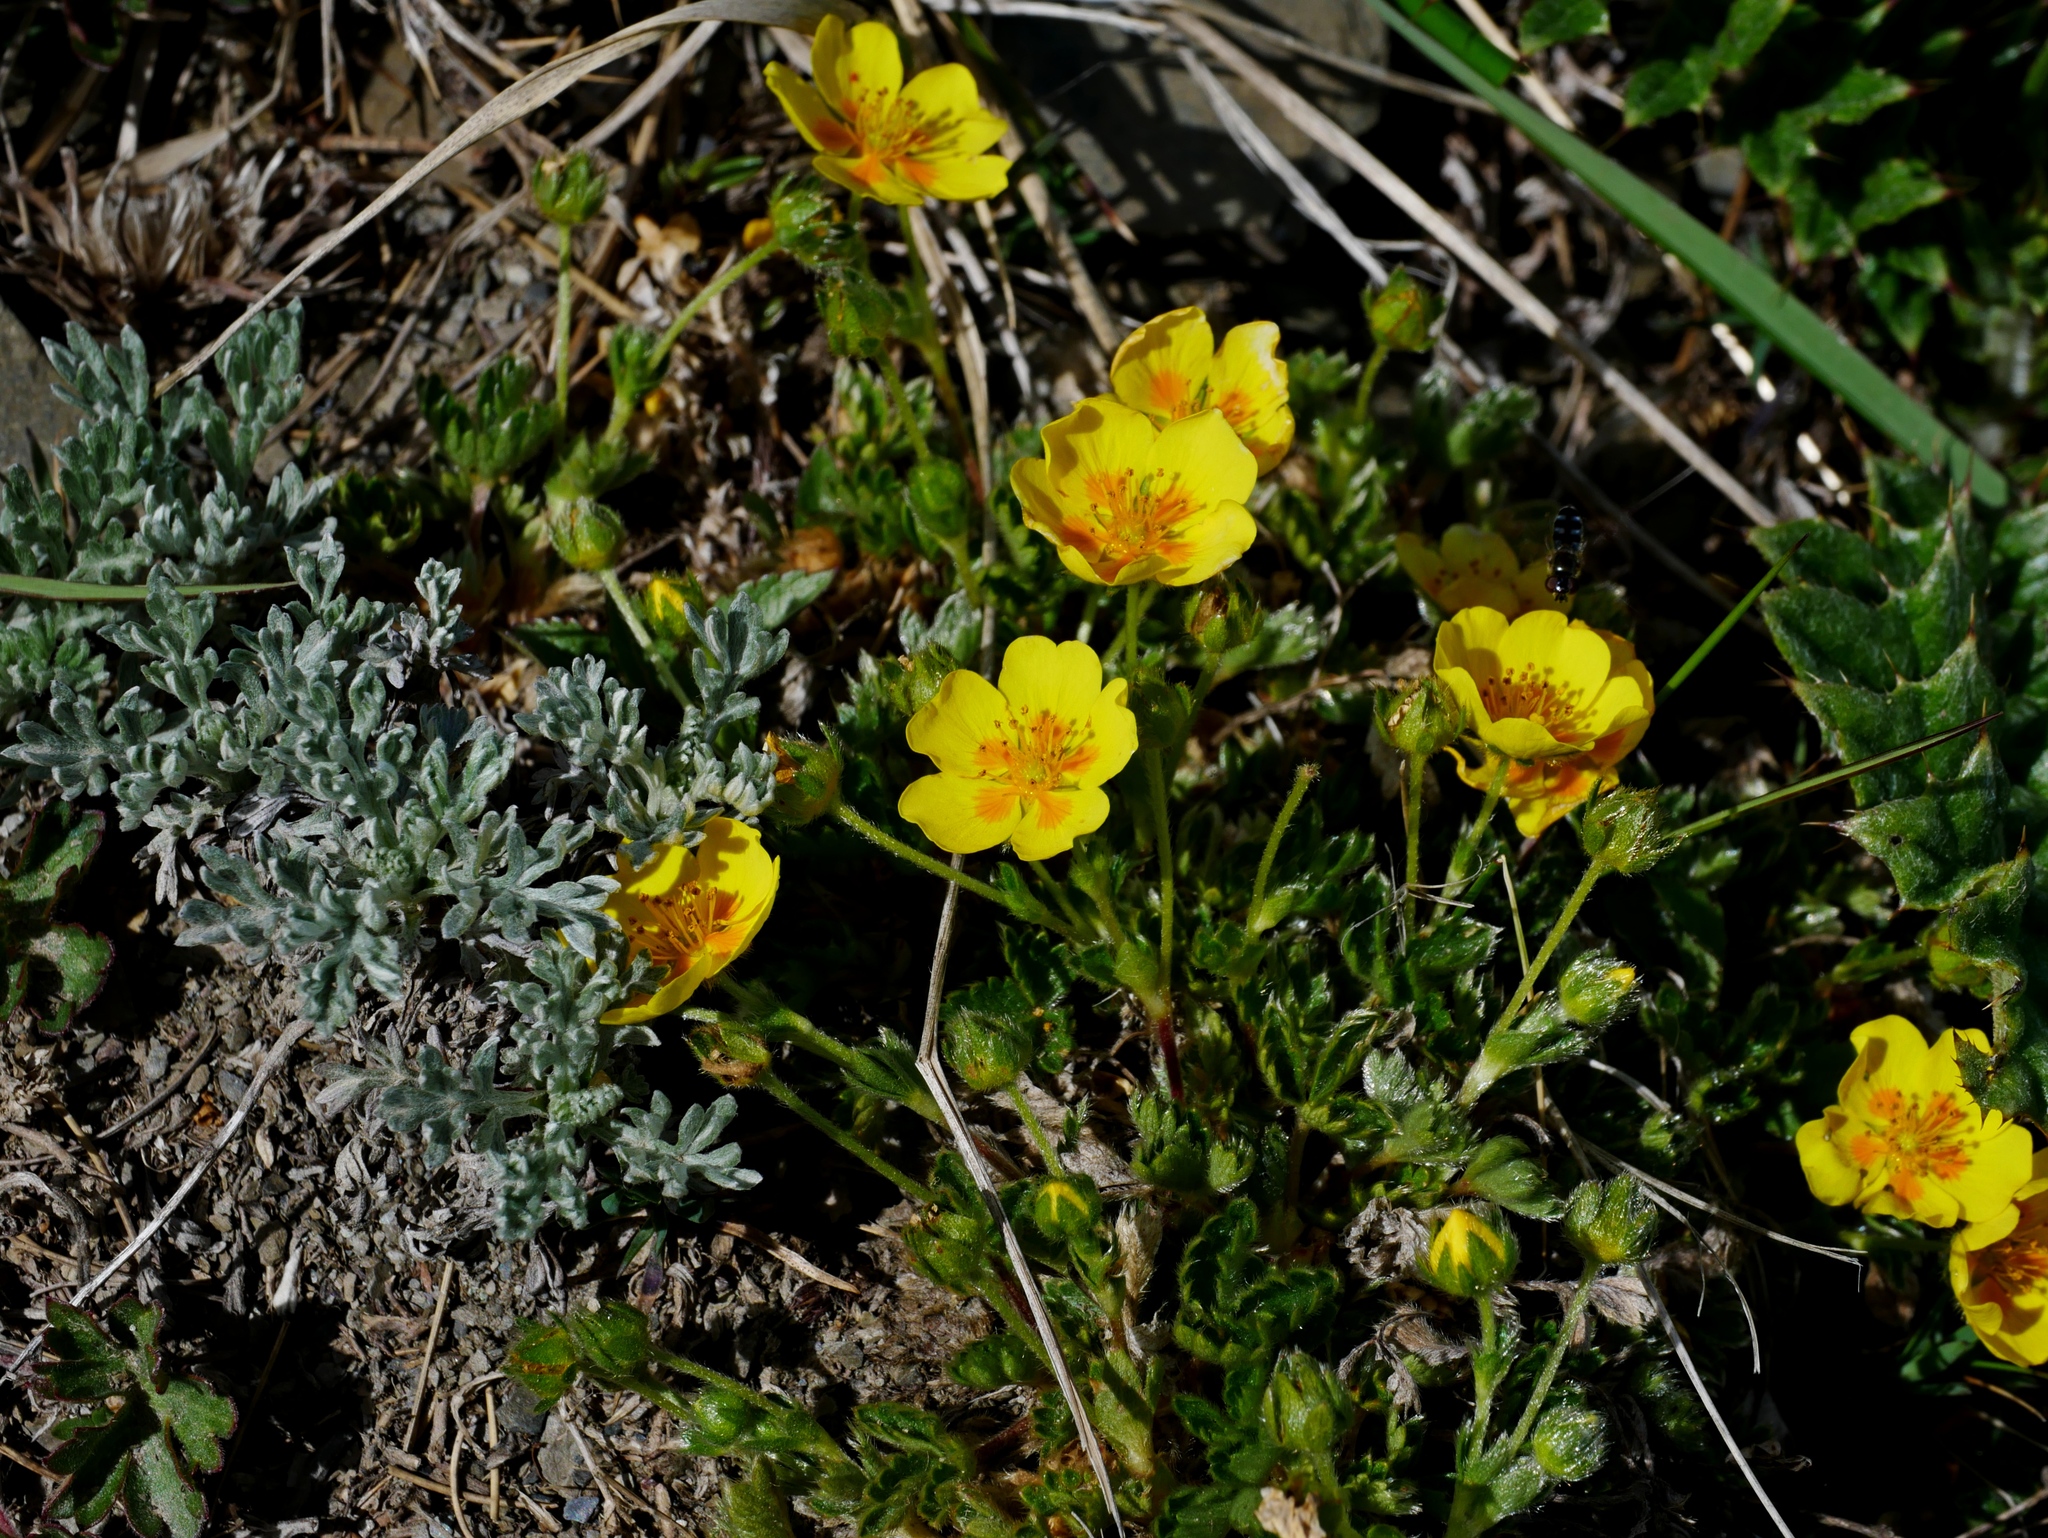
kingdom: Plantae
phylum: Tracheophyta
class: Magnoliopsida
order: Rosales
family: Rosaceae
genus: Potentilla
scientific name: Potentilla matsumurae
